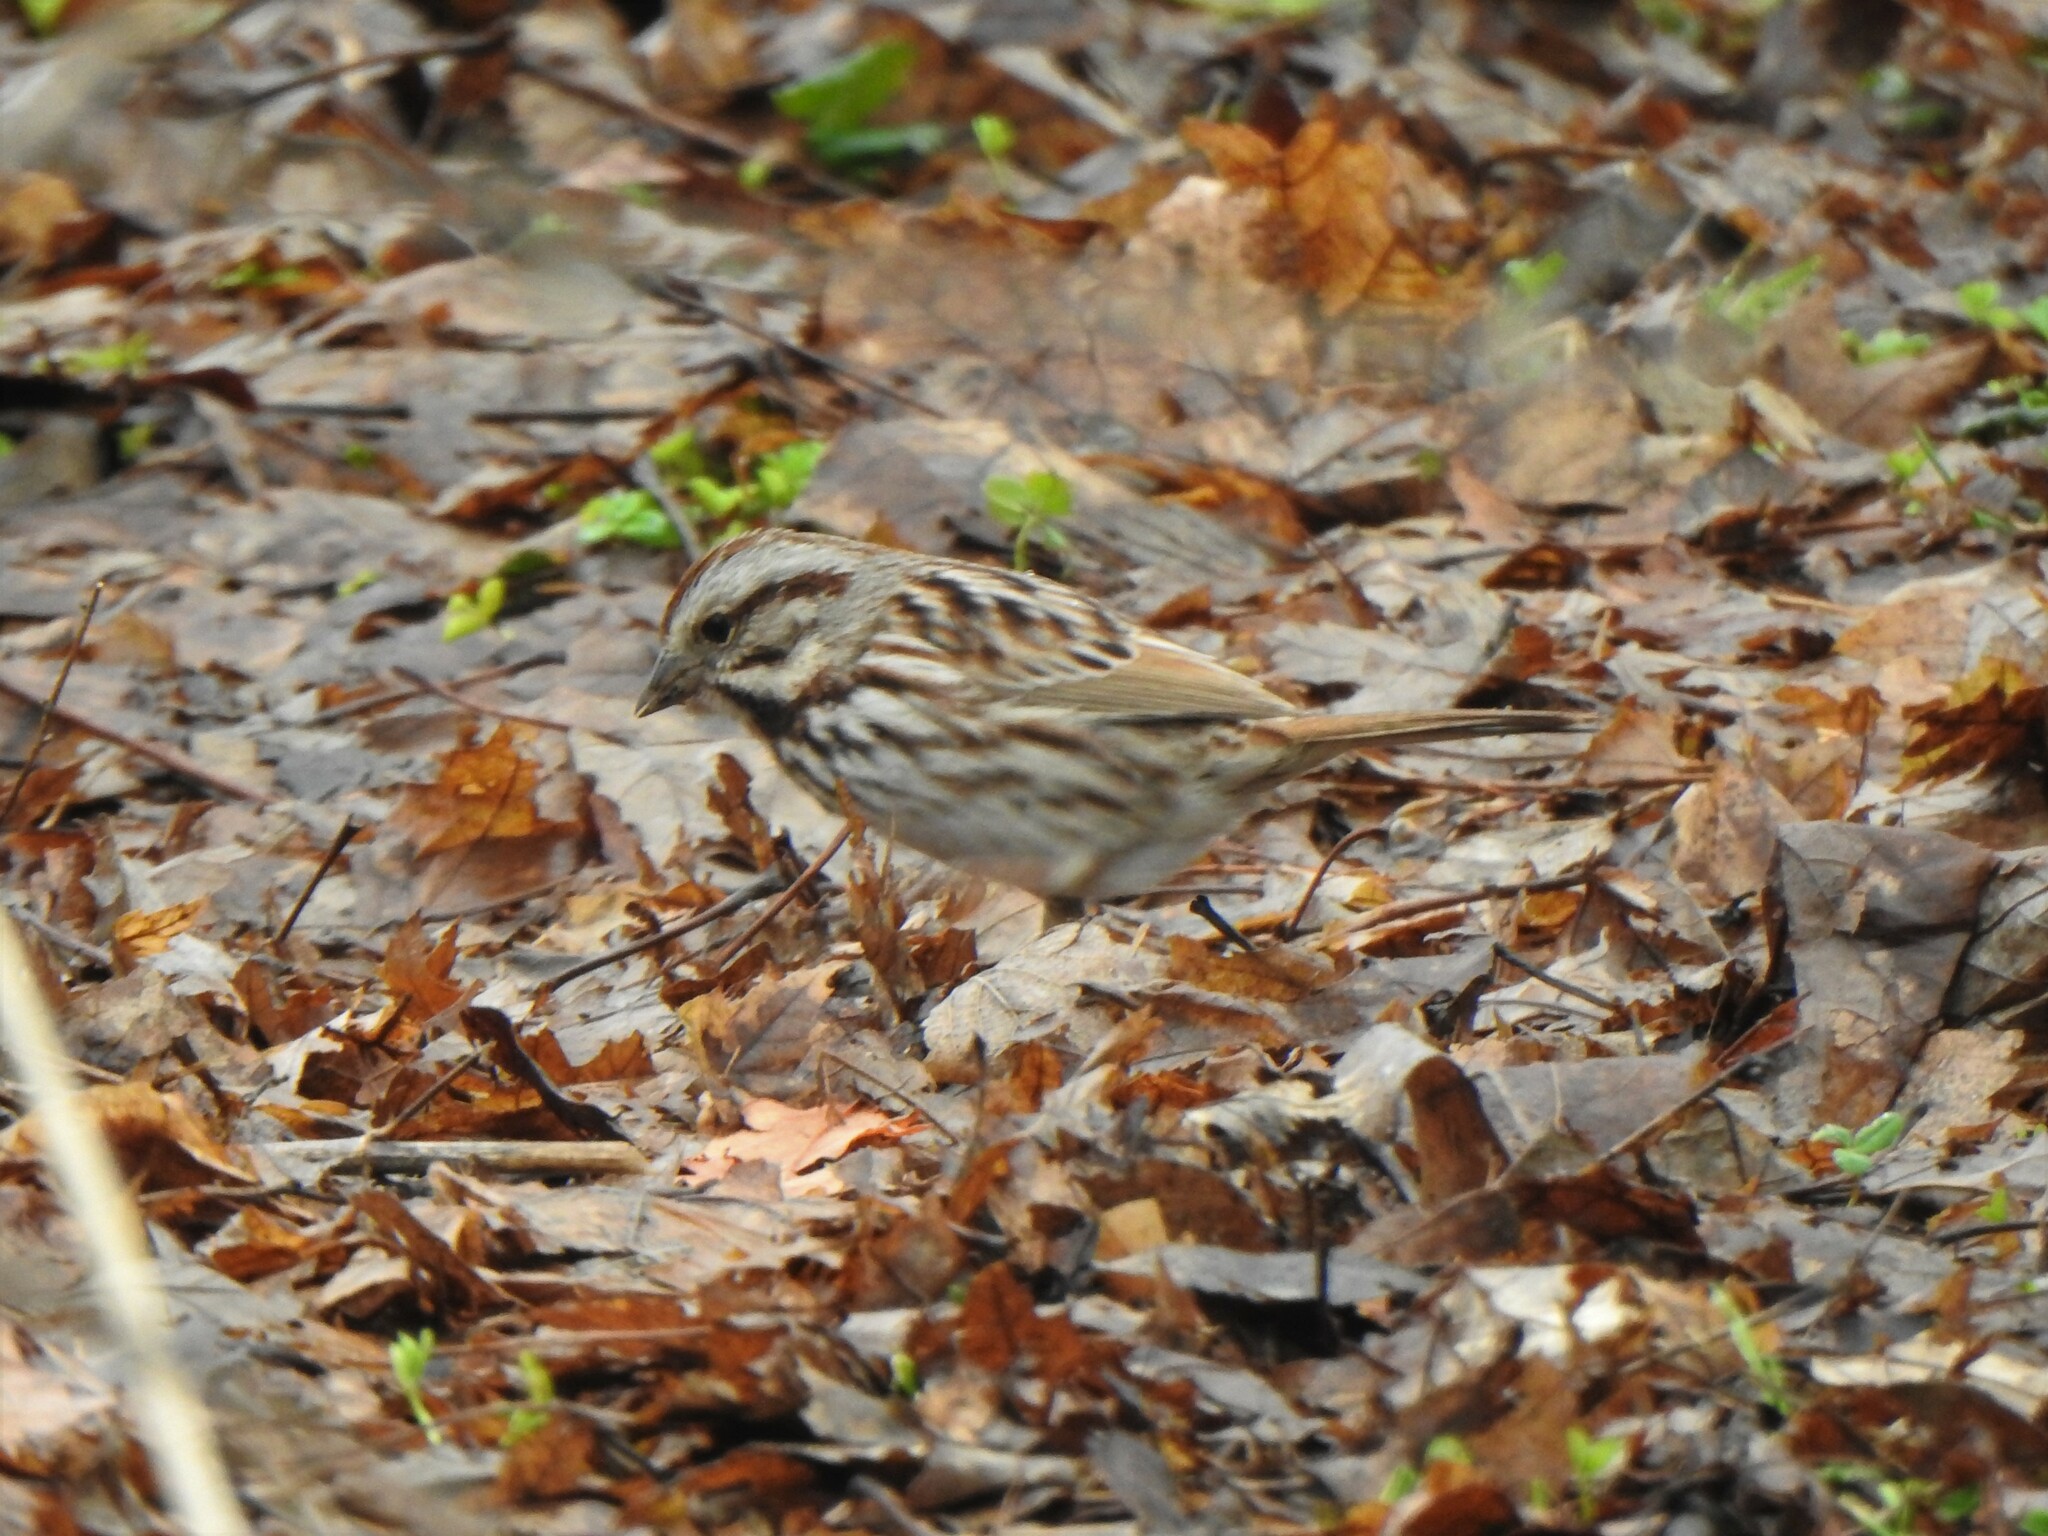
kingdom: Animalia
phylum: Chordata
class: Aves
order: Passeriformes
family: Passerellidae
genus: Melospiza
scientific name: Melospiza melodia
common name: Song sparrow
